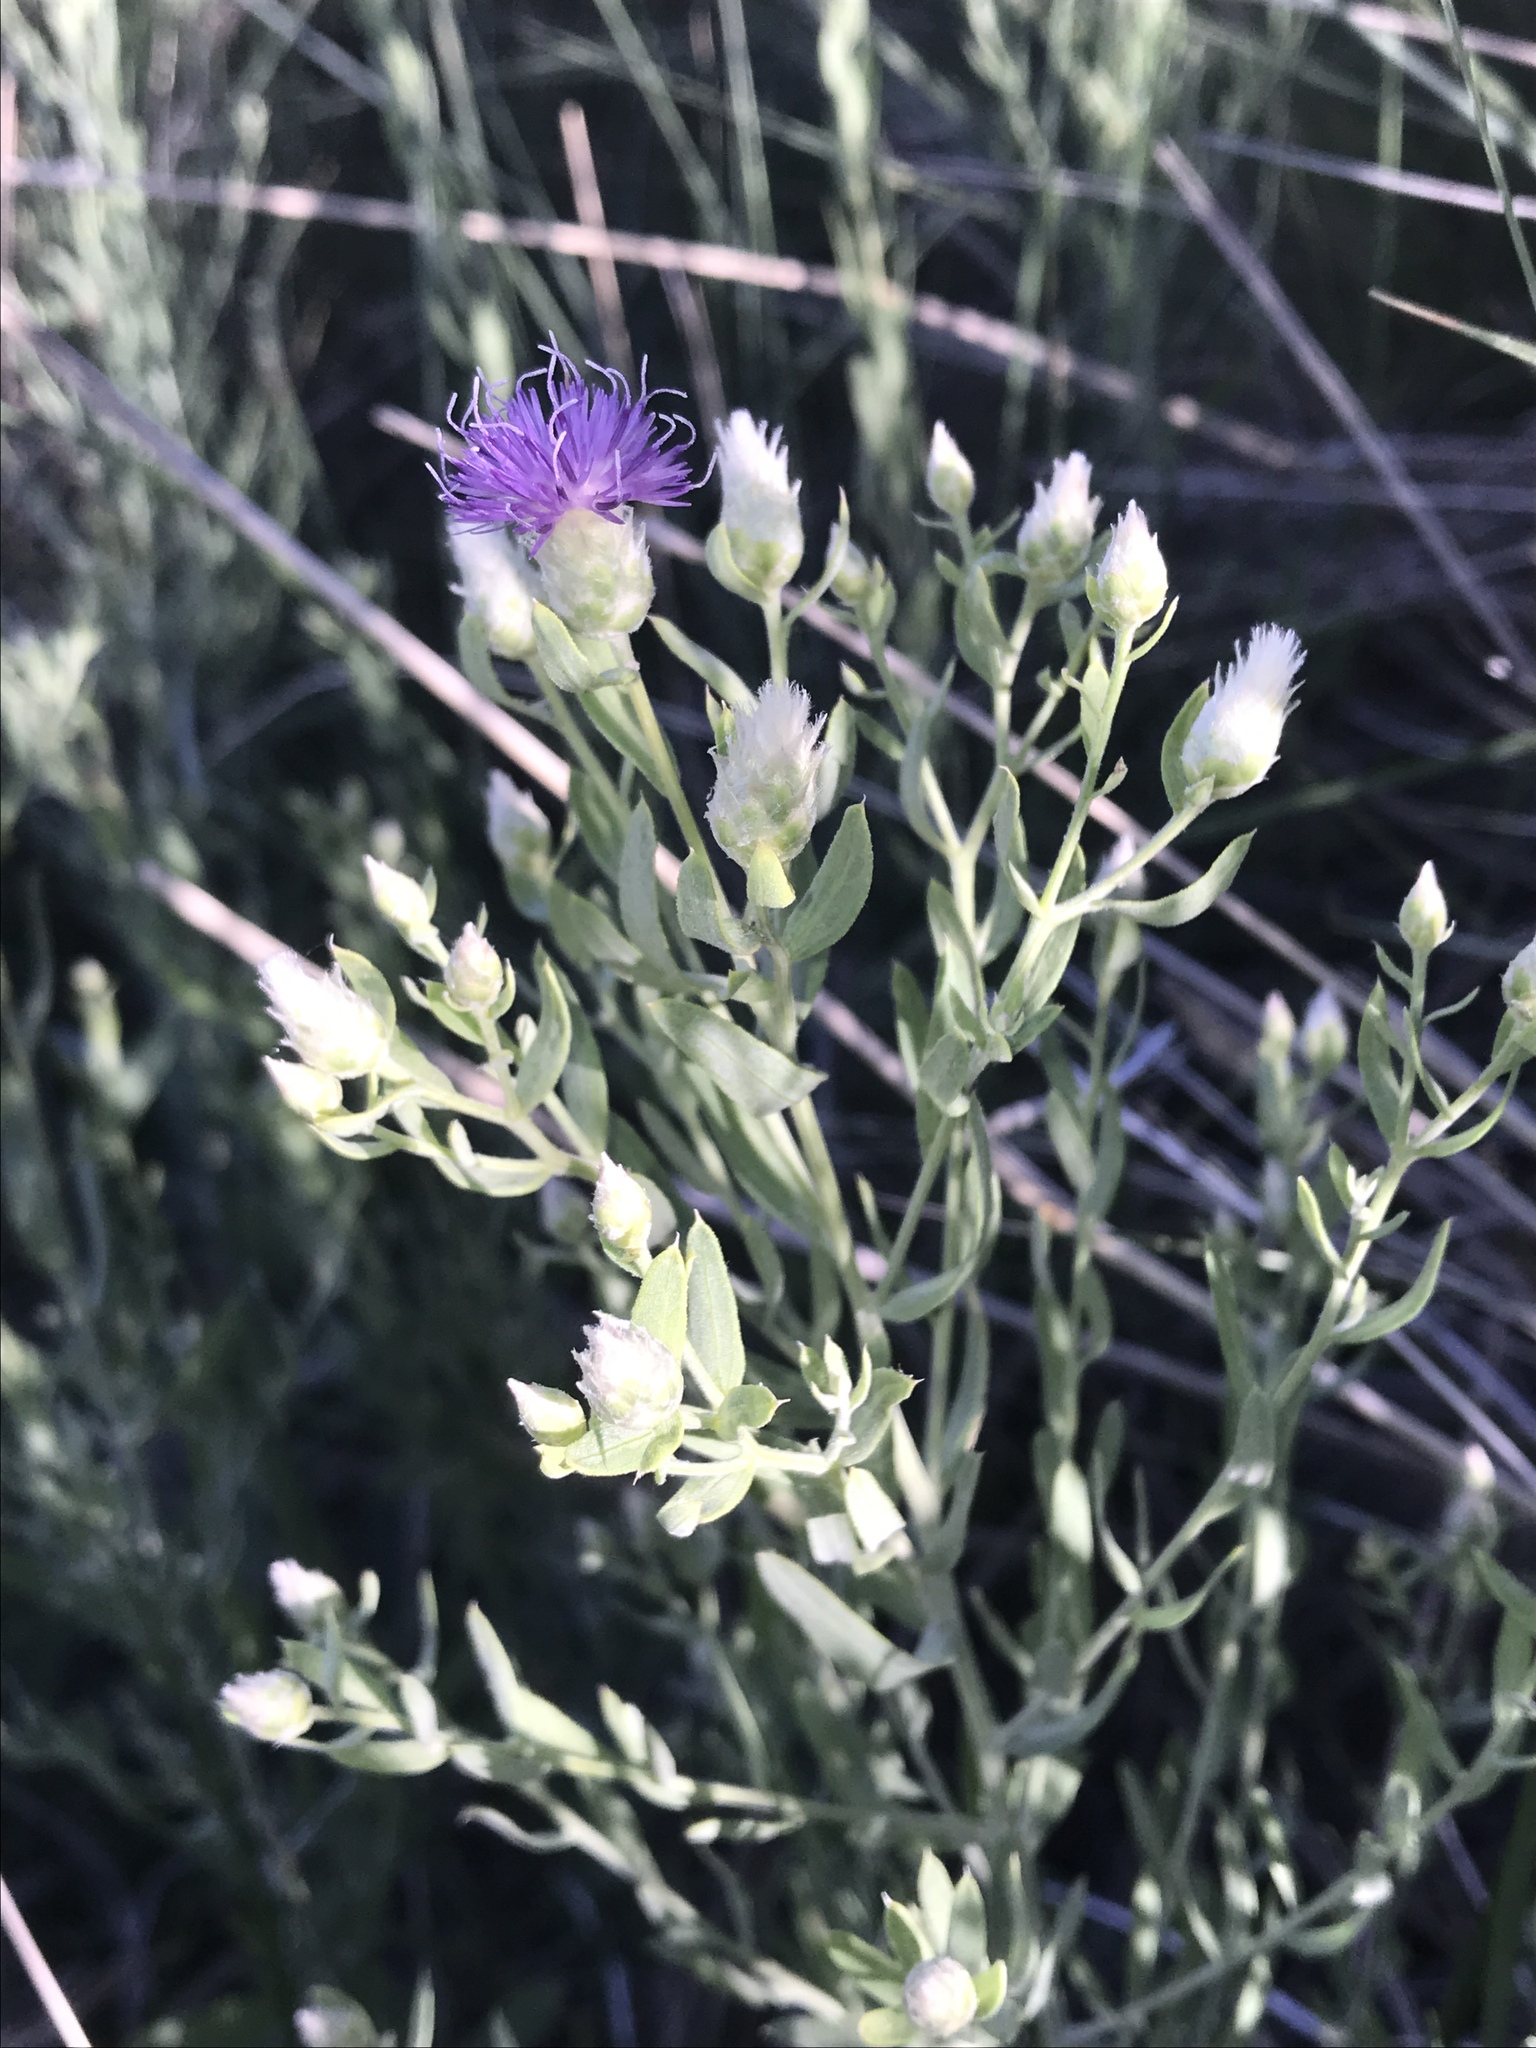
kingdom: Plantae
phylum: Tracheophyta
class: Magnoliopsida
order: Asterales
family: Asteraceae
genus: Leuzea
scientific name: Leuzea repens
